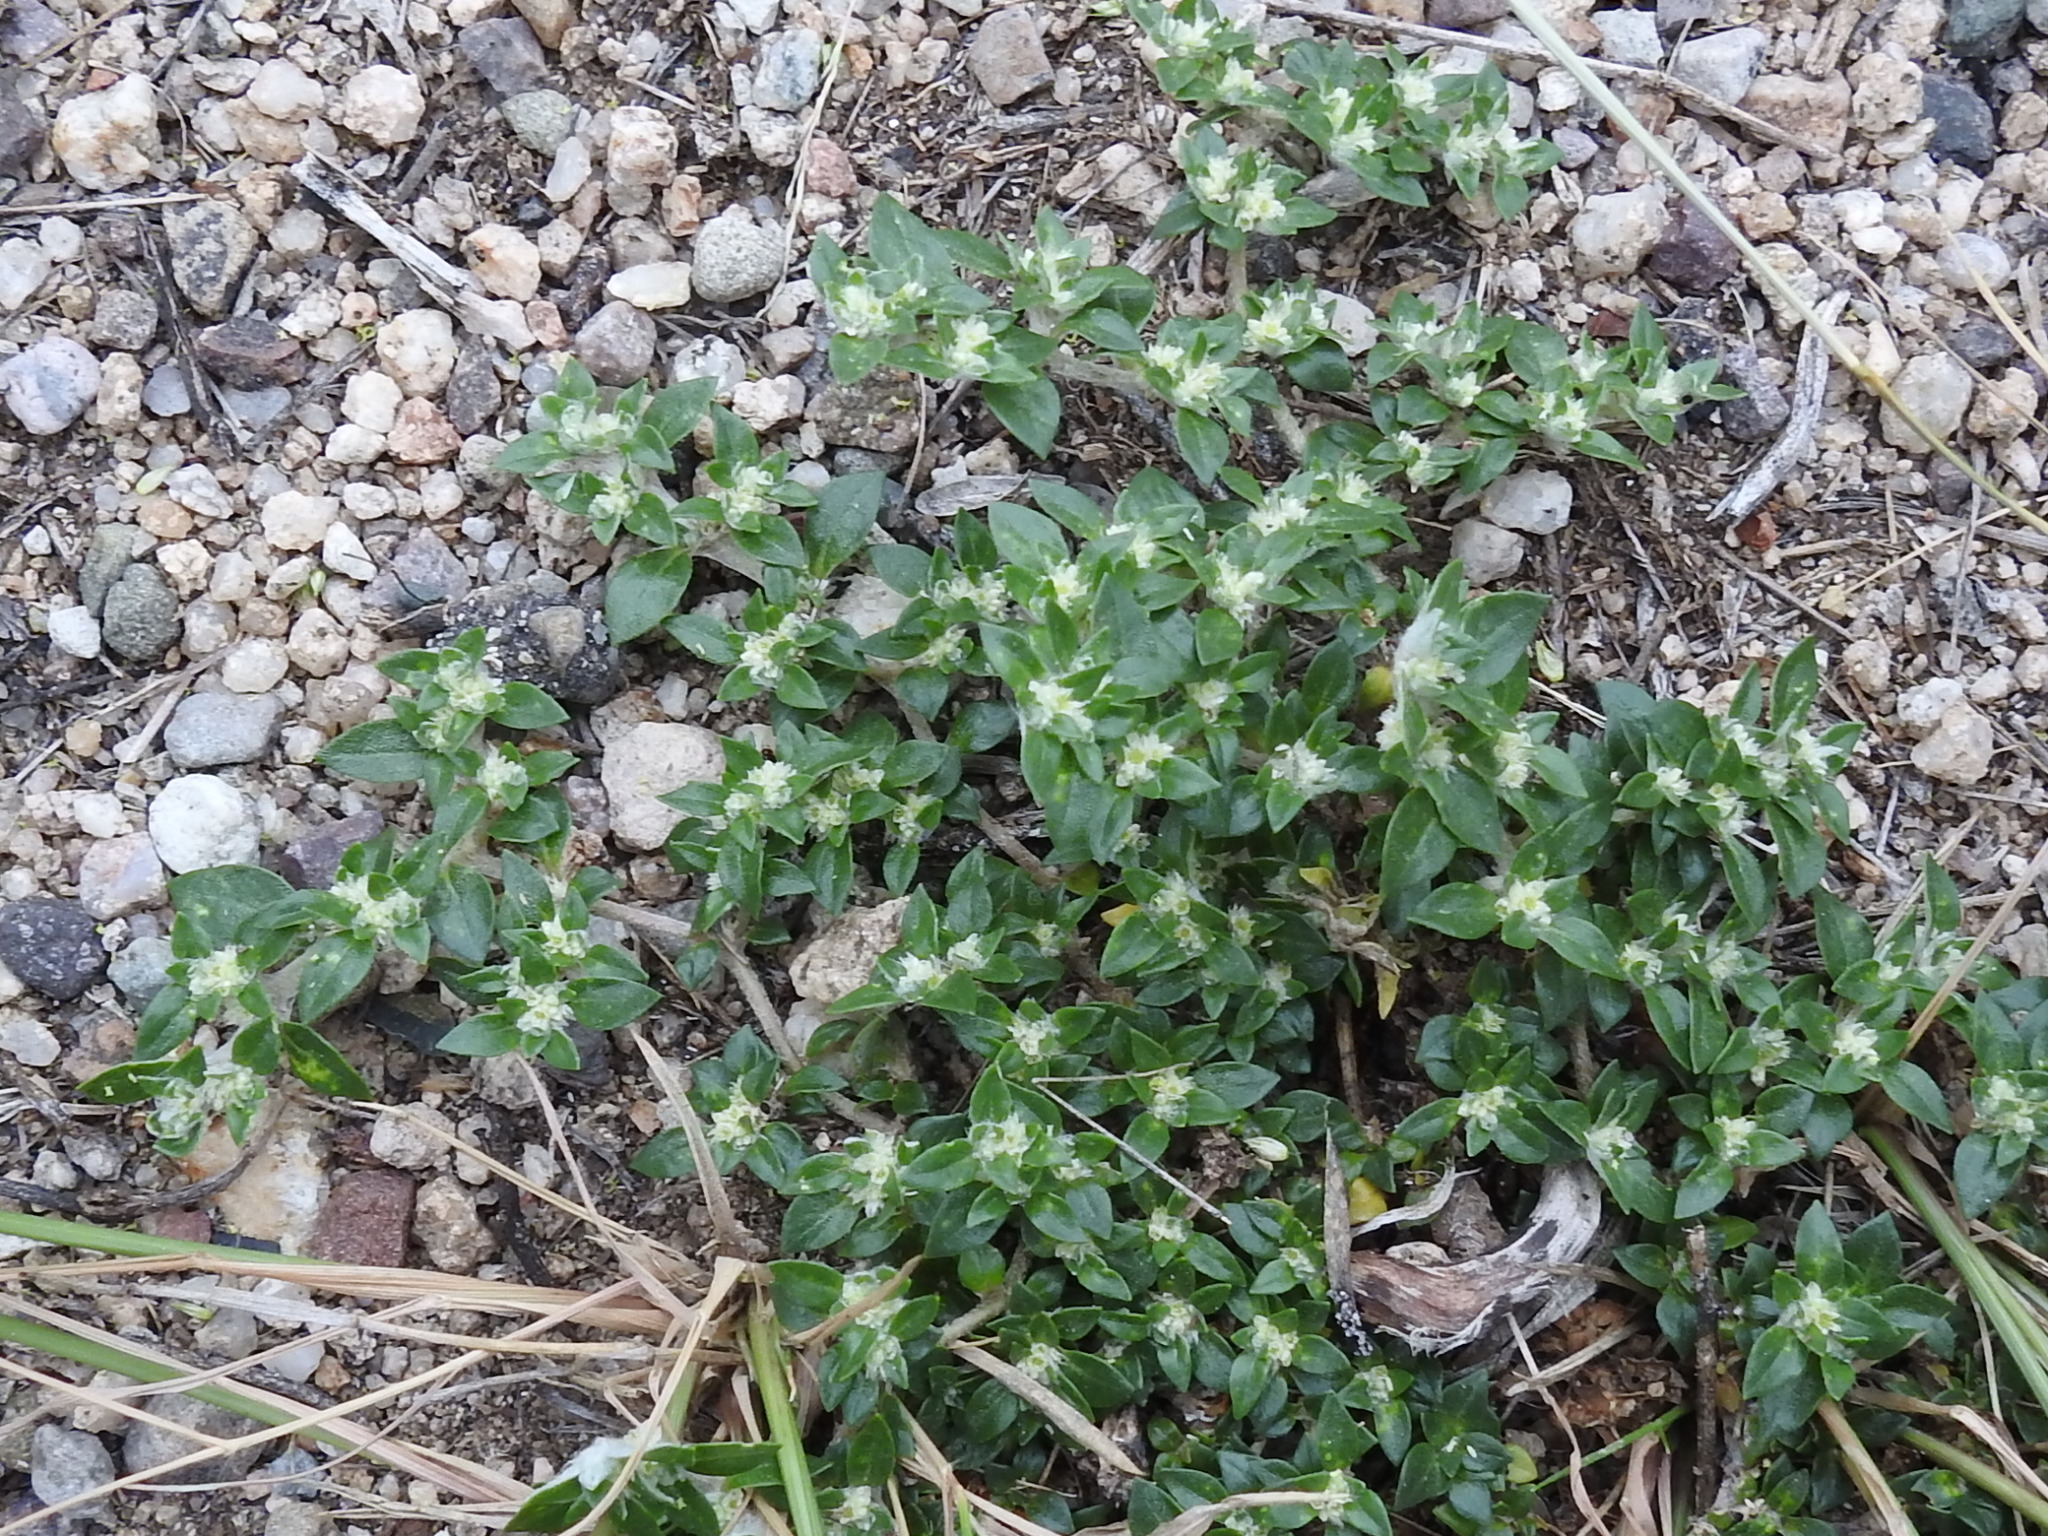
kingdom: Plantae
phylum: Tracheophyta
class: Magnoliopsida
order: Caryophyllales
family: Amaranthaceae
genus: Guilleminea
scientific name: Guilleminea densa
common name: Small matweed
